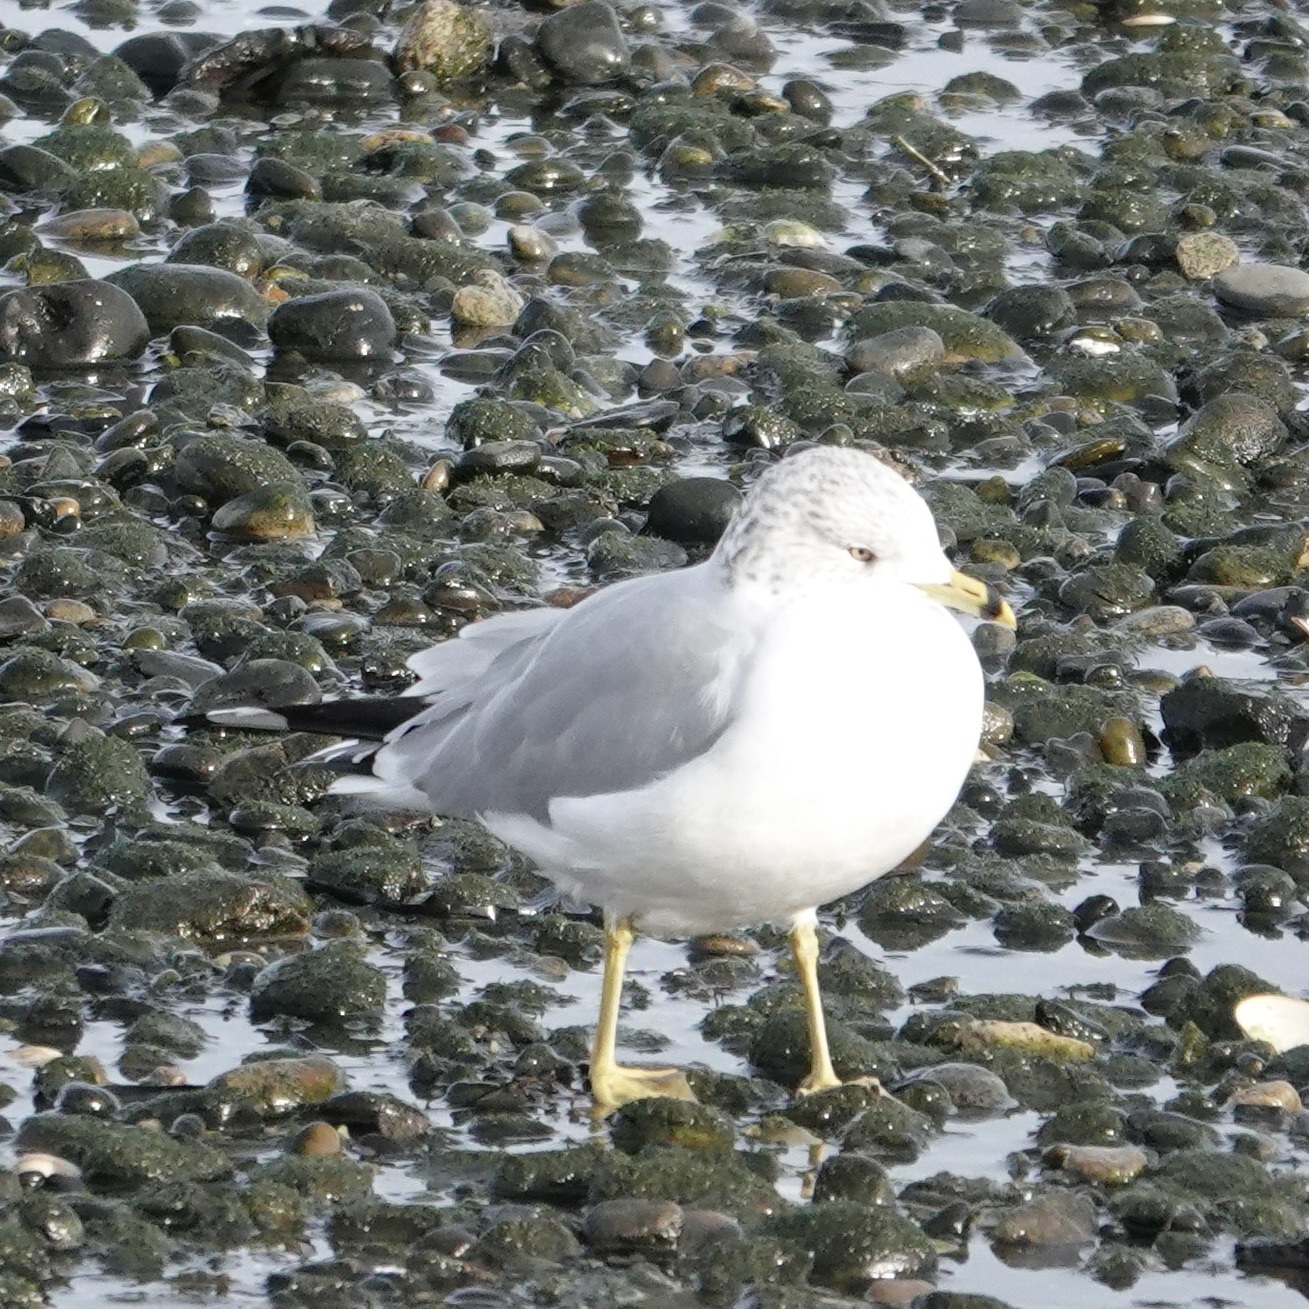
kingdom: Animalia
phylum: Chordata
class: Aves
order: Charadriiformes
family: Laridae
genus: Larus
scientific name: Larus delawarensis
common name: Ring-billed gull
